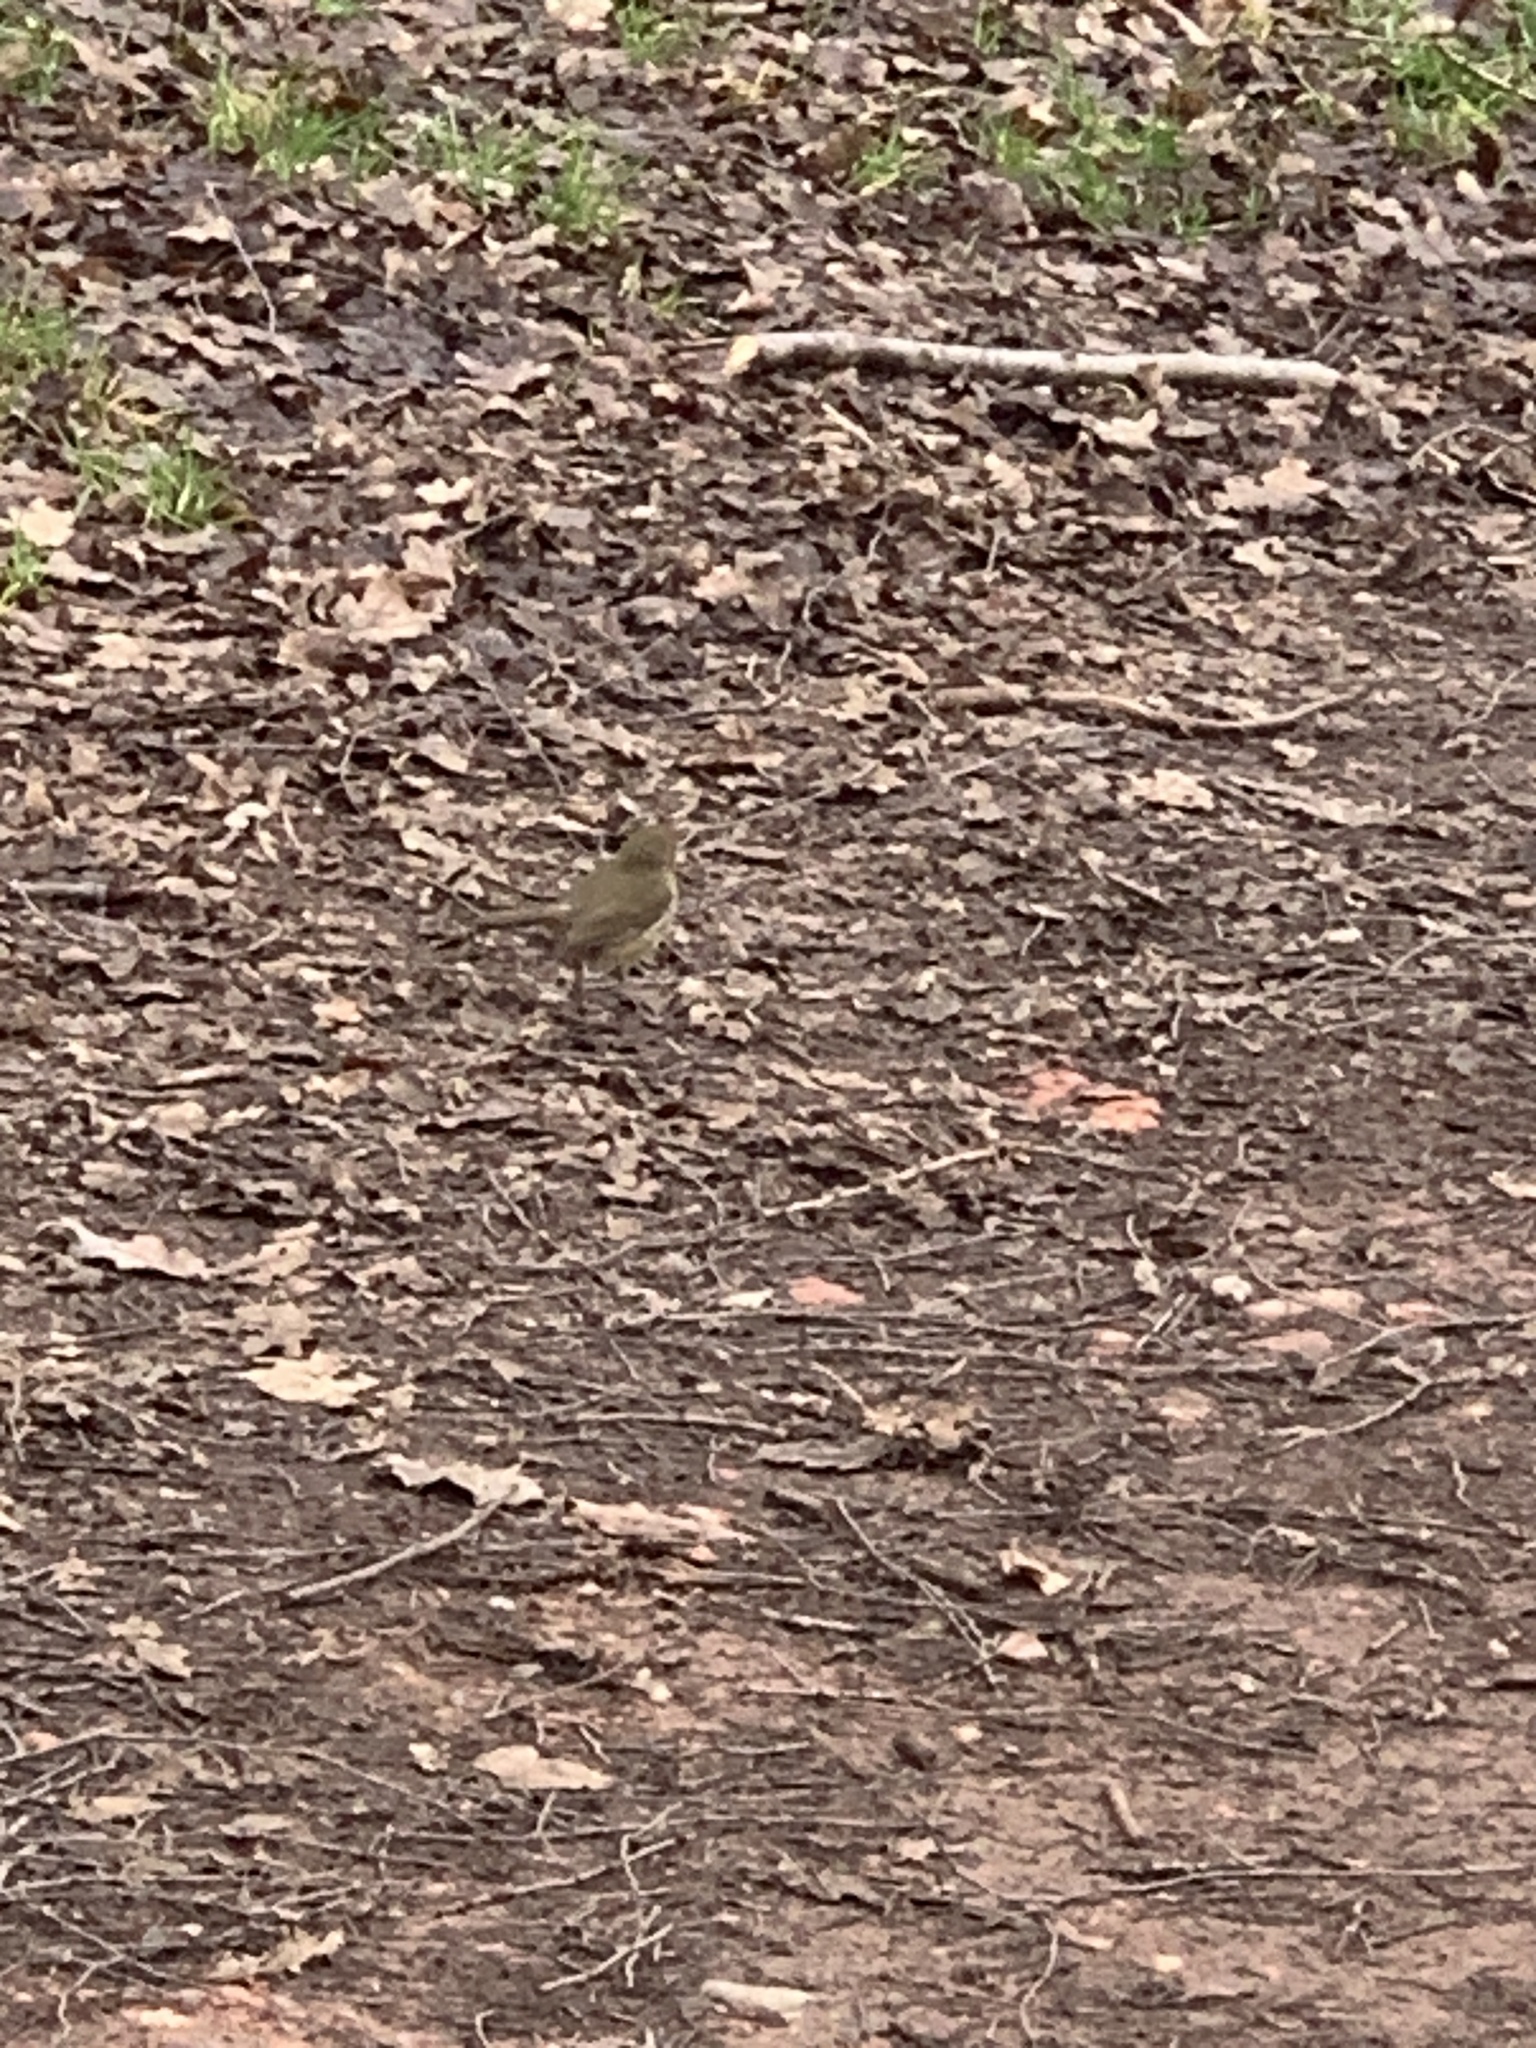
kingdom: Animalia
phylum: Chordata
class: Aves
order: Passeriformes
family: Muscicapidae
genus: Erithacus
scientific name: Erithacus rubecula
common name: European robin
